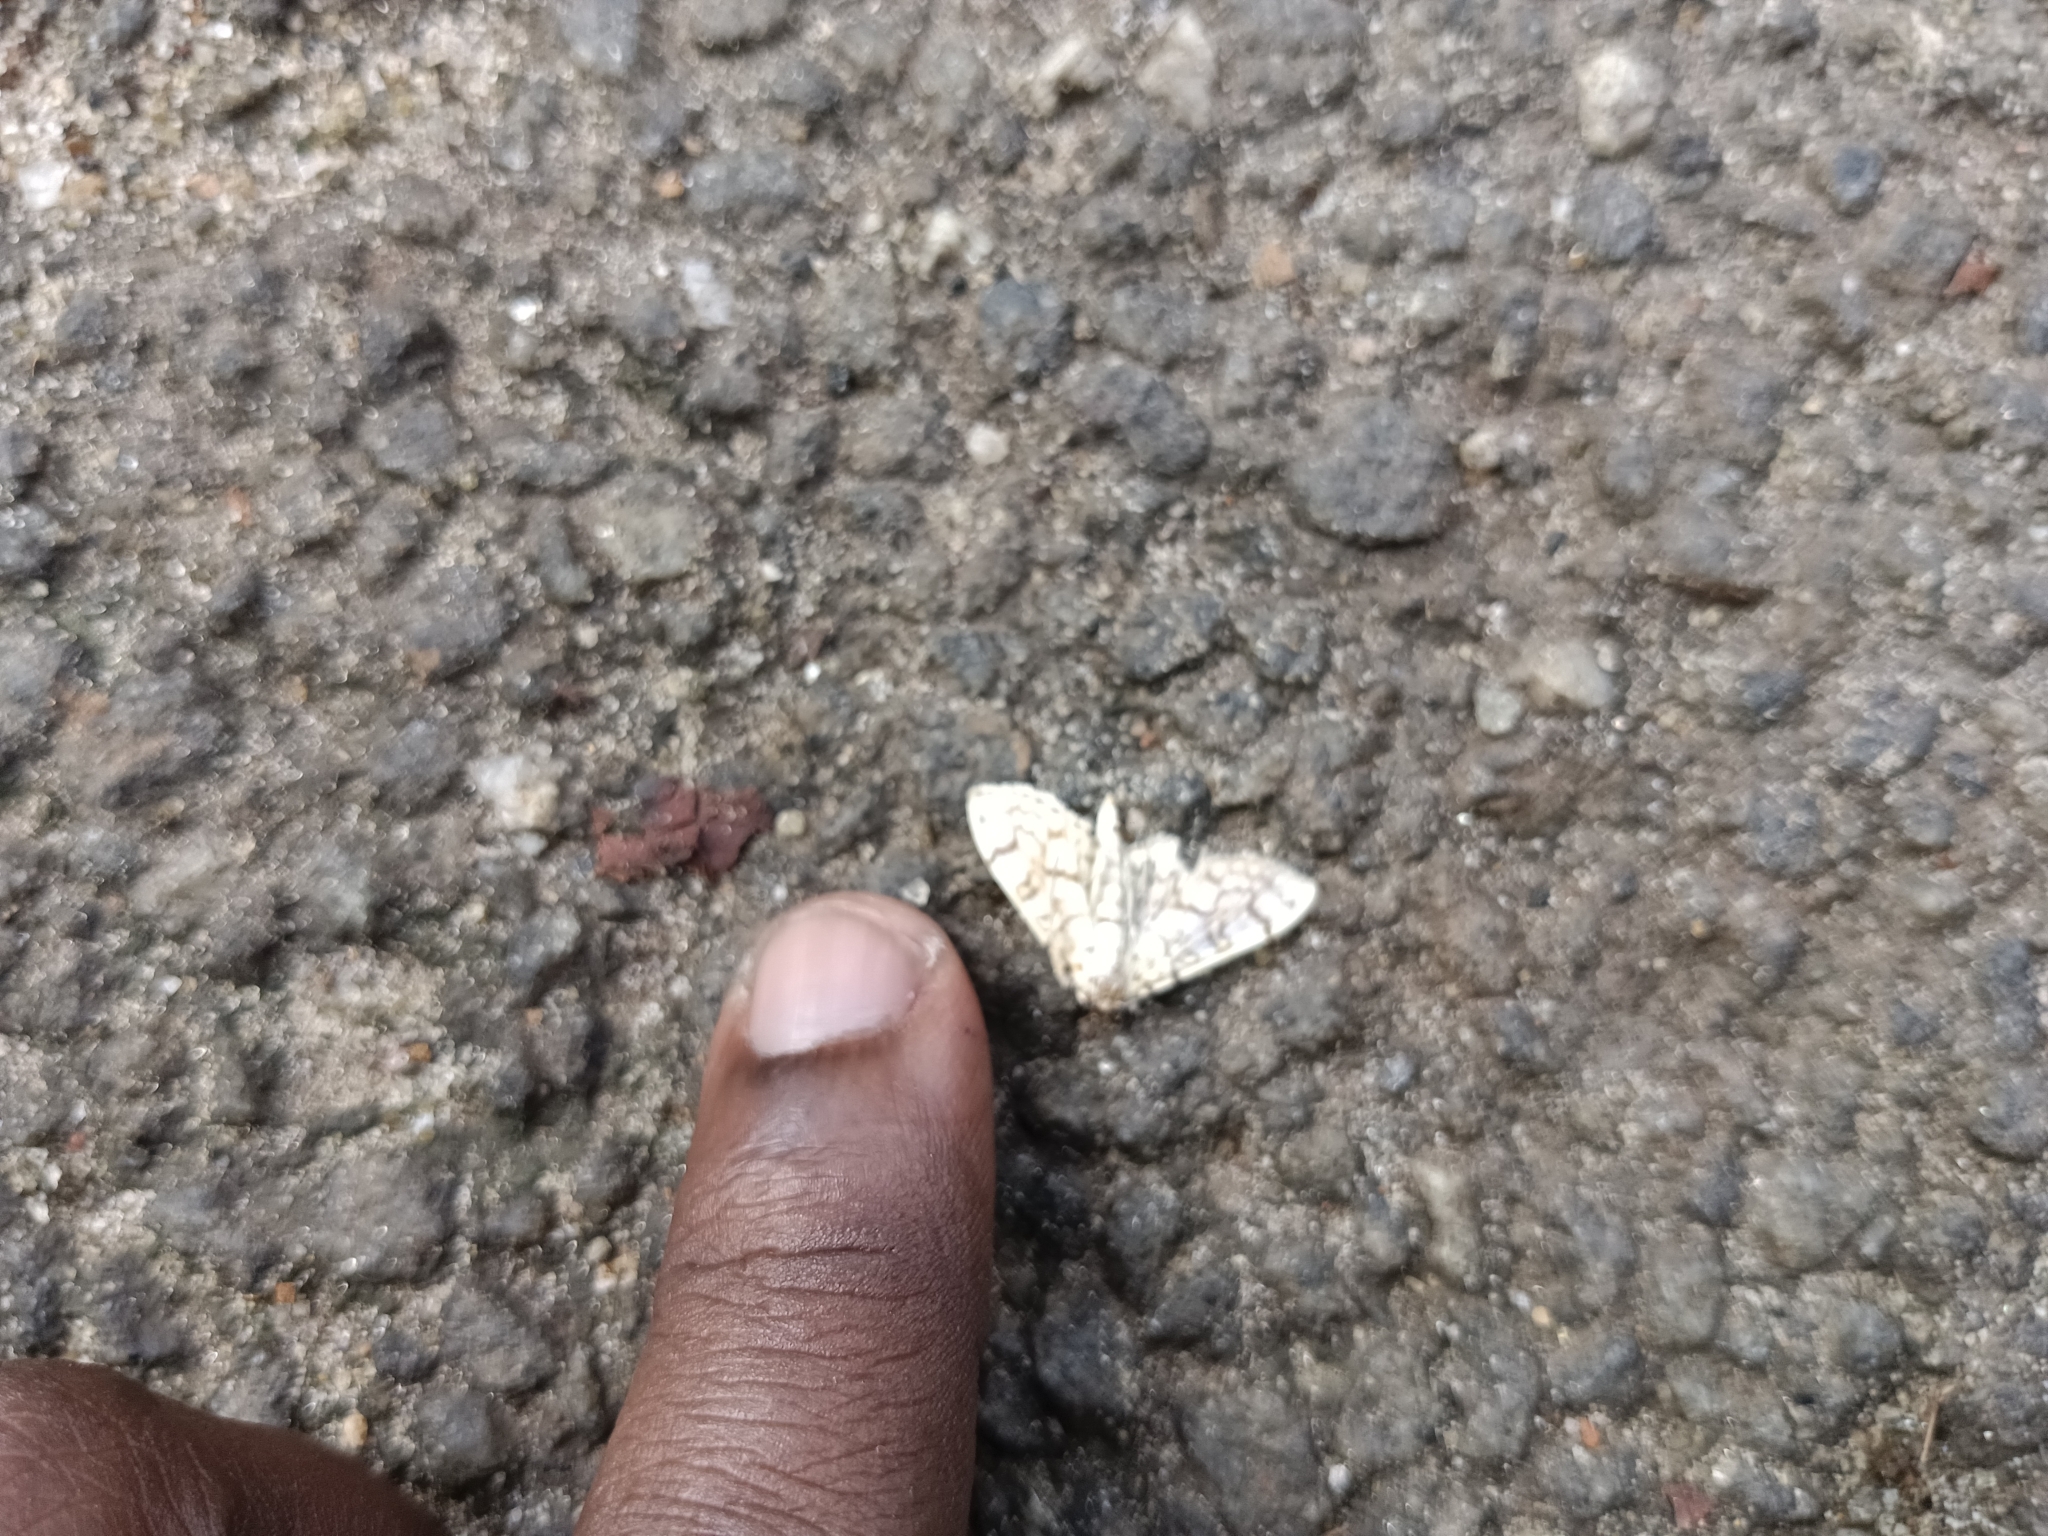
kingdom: Animalia
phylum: Arthropoda
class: Insecta
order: Lepidoptera
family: Crambidae
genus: Haritalodes
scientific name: Haritalodes derogata
